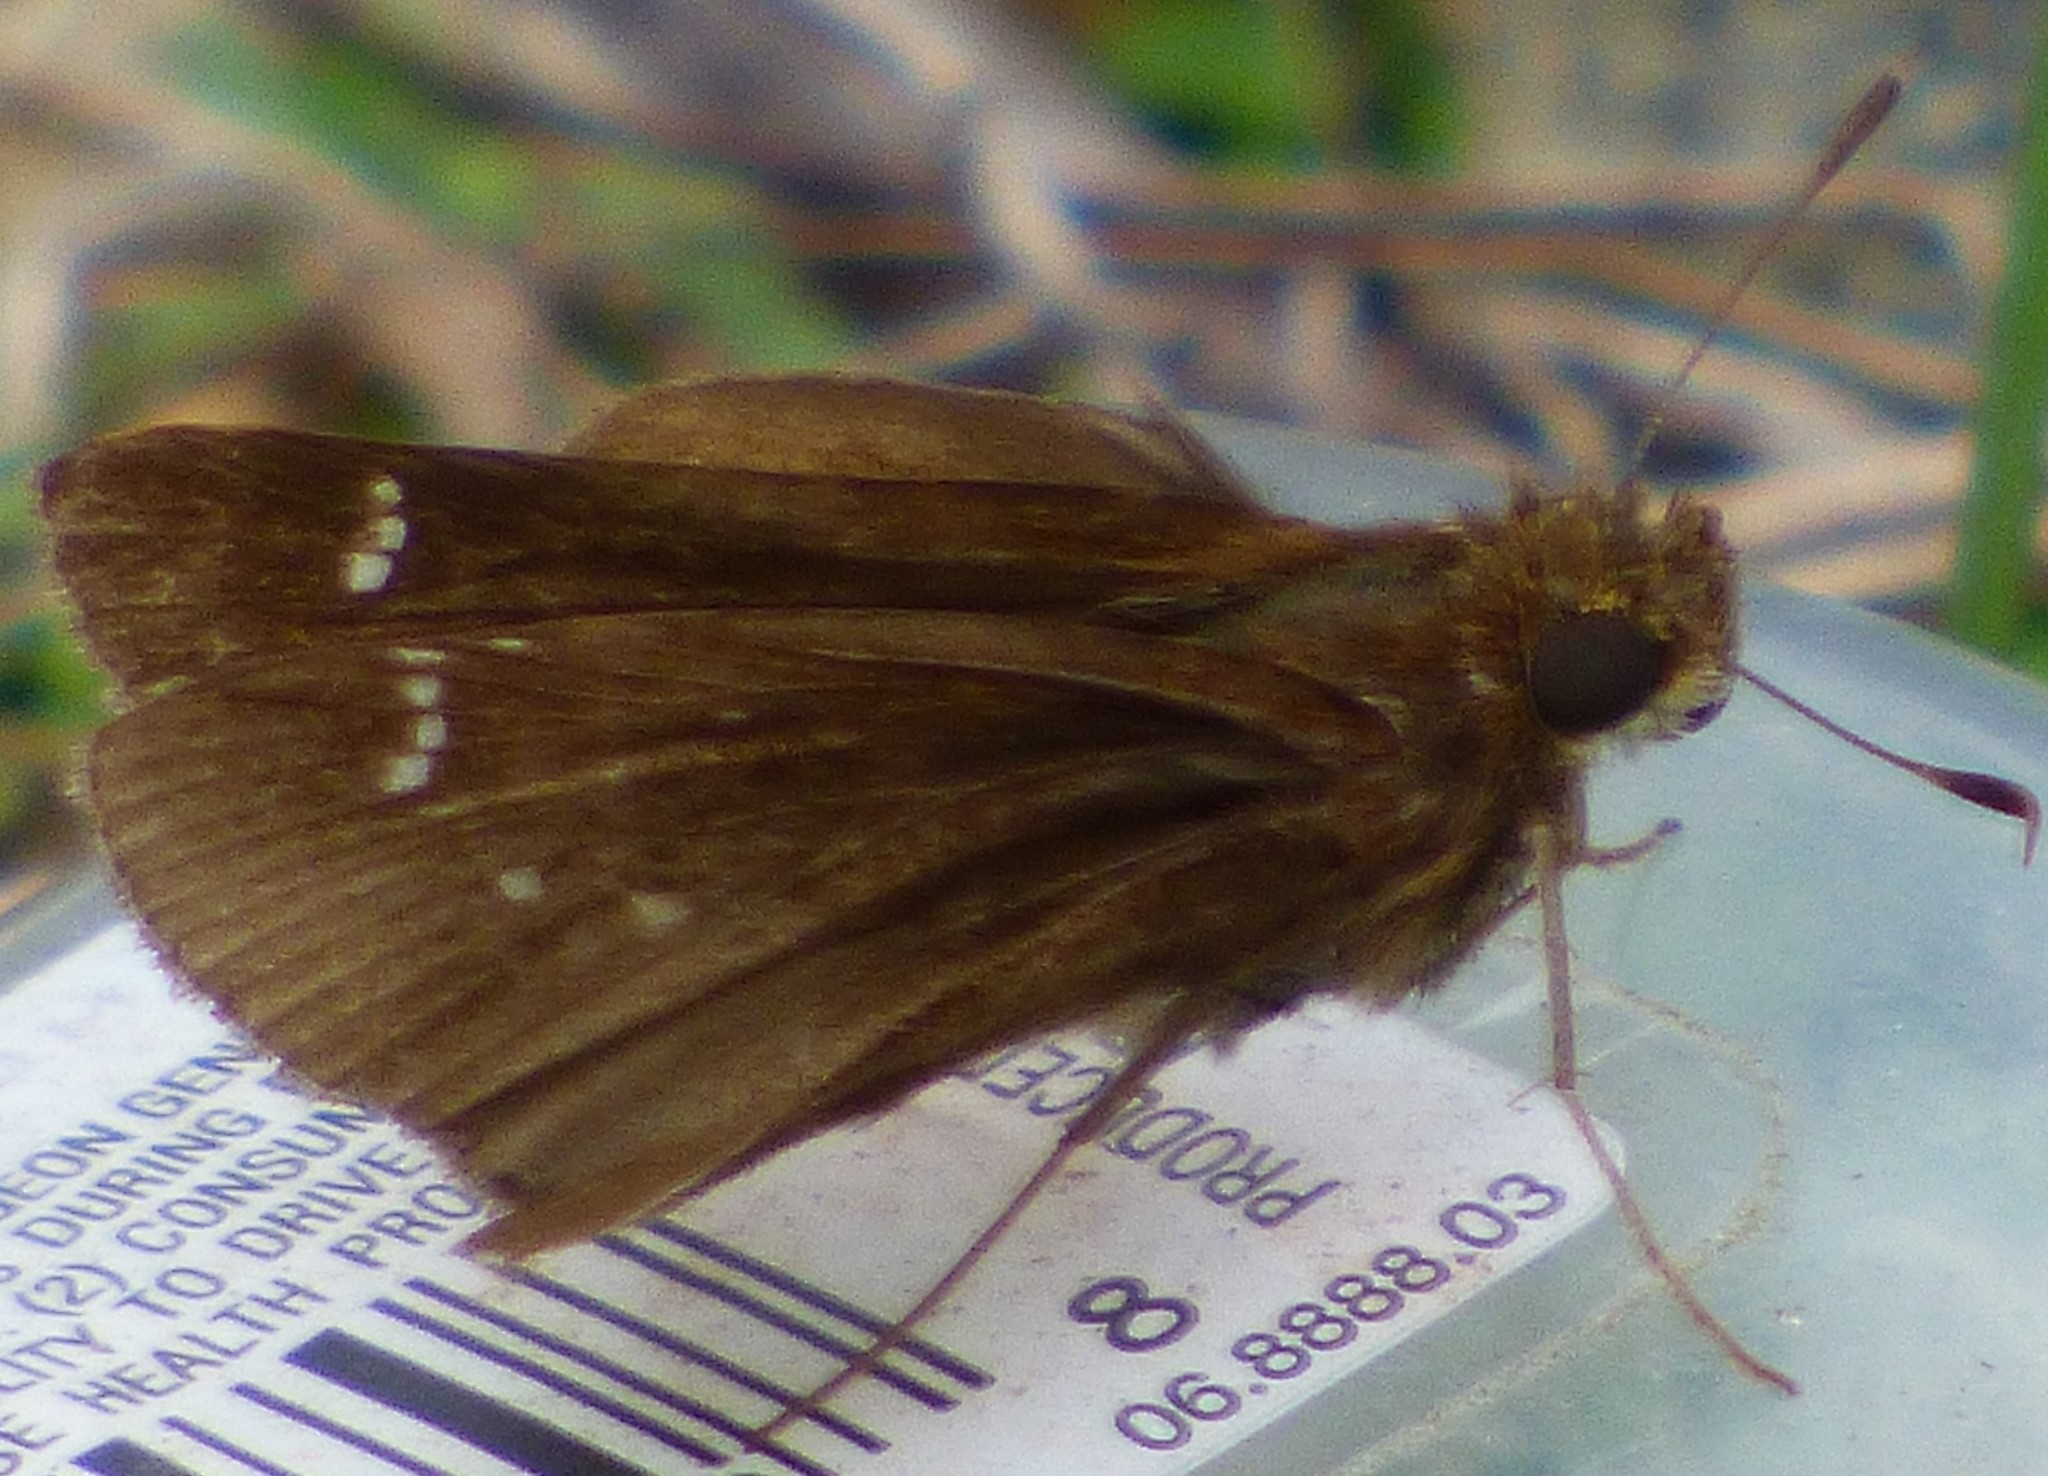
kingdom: Animalia
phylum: Arthropoda
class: Insecta
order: Lepidoptera
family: Hesperiidae
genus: Lerema
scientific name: Lerema accius
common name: Clouded skipper
